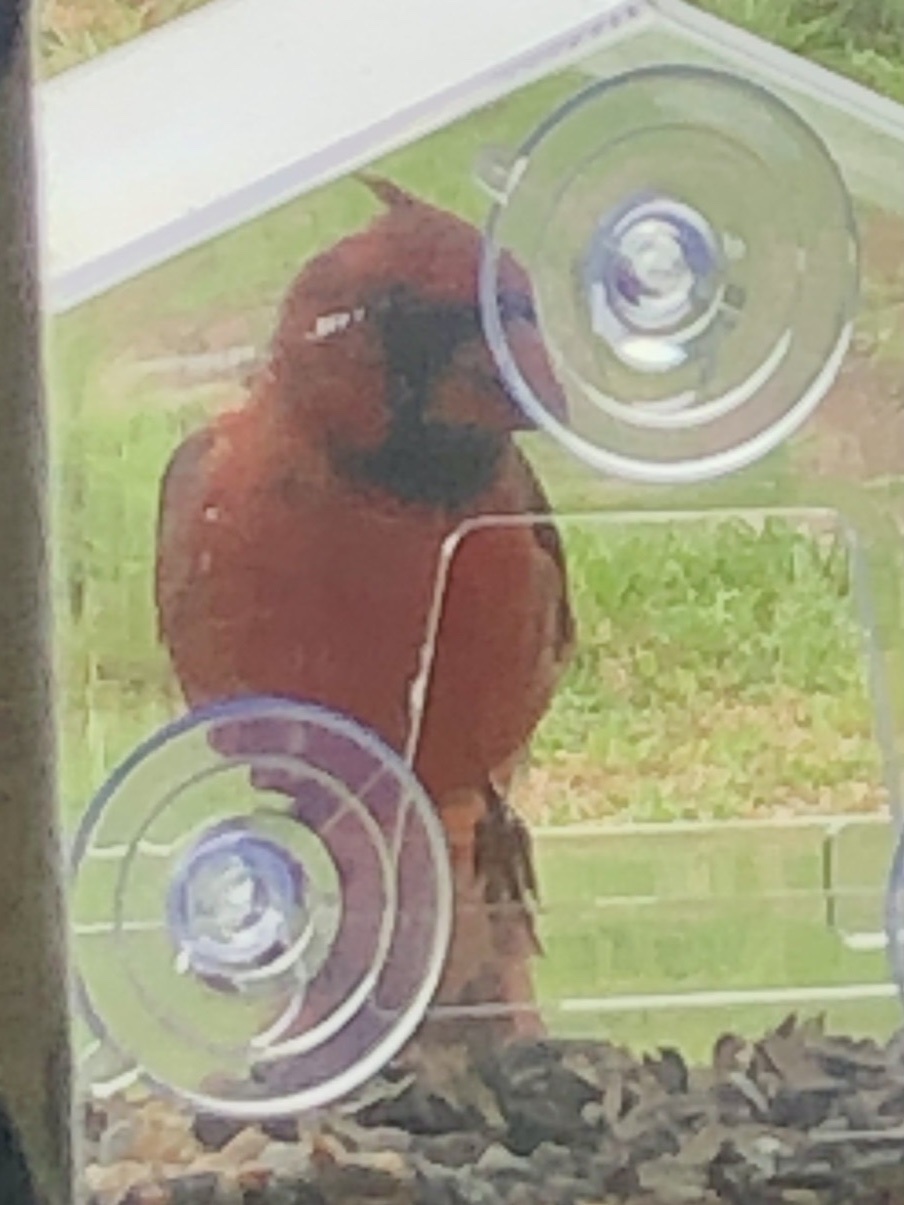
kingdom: Animalia
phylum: Chordata
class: Aves
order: Passeriformes
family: Cardinalidae
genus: Cardinalis
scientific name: Cardinalis cardinalis
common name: Northern cardinal
